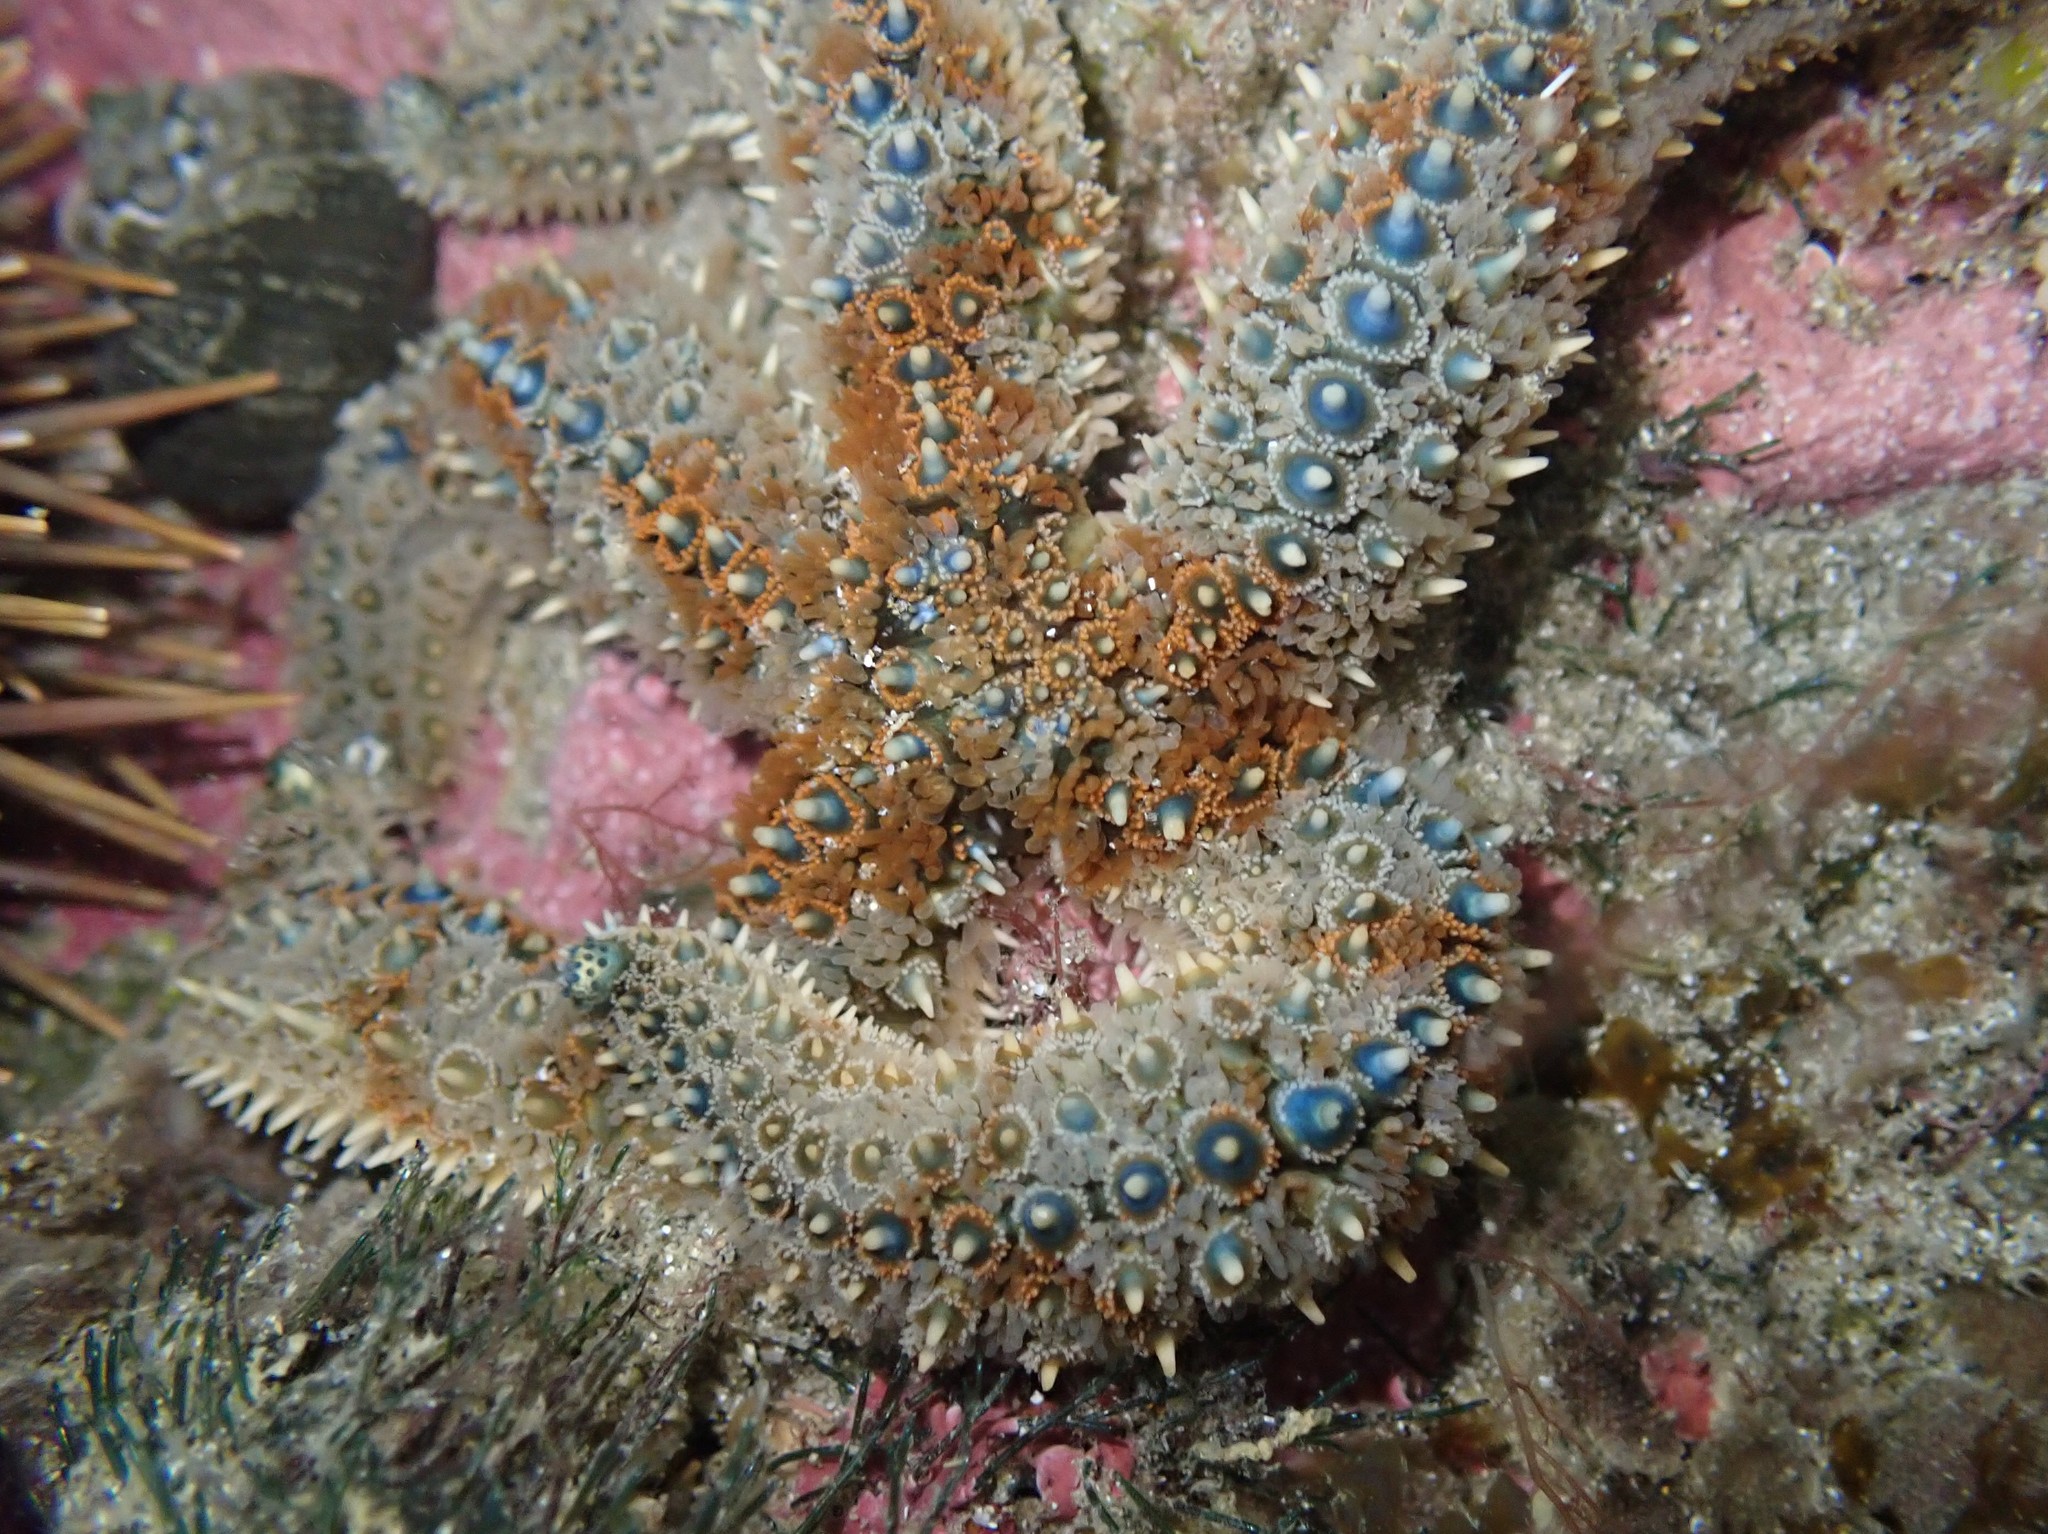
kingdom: Animalia
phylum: Echinodermata
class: Asteroidea
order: Forcipulatida
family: Asteriidae
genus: Coscinasterias
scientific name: Coscinasterias muricata
